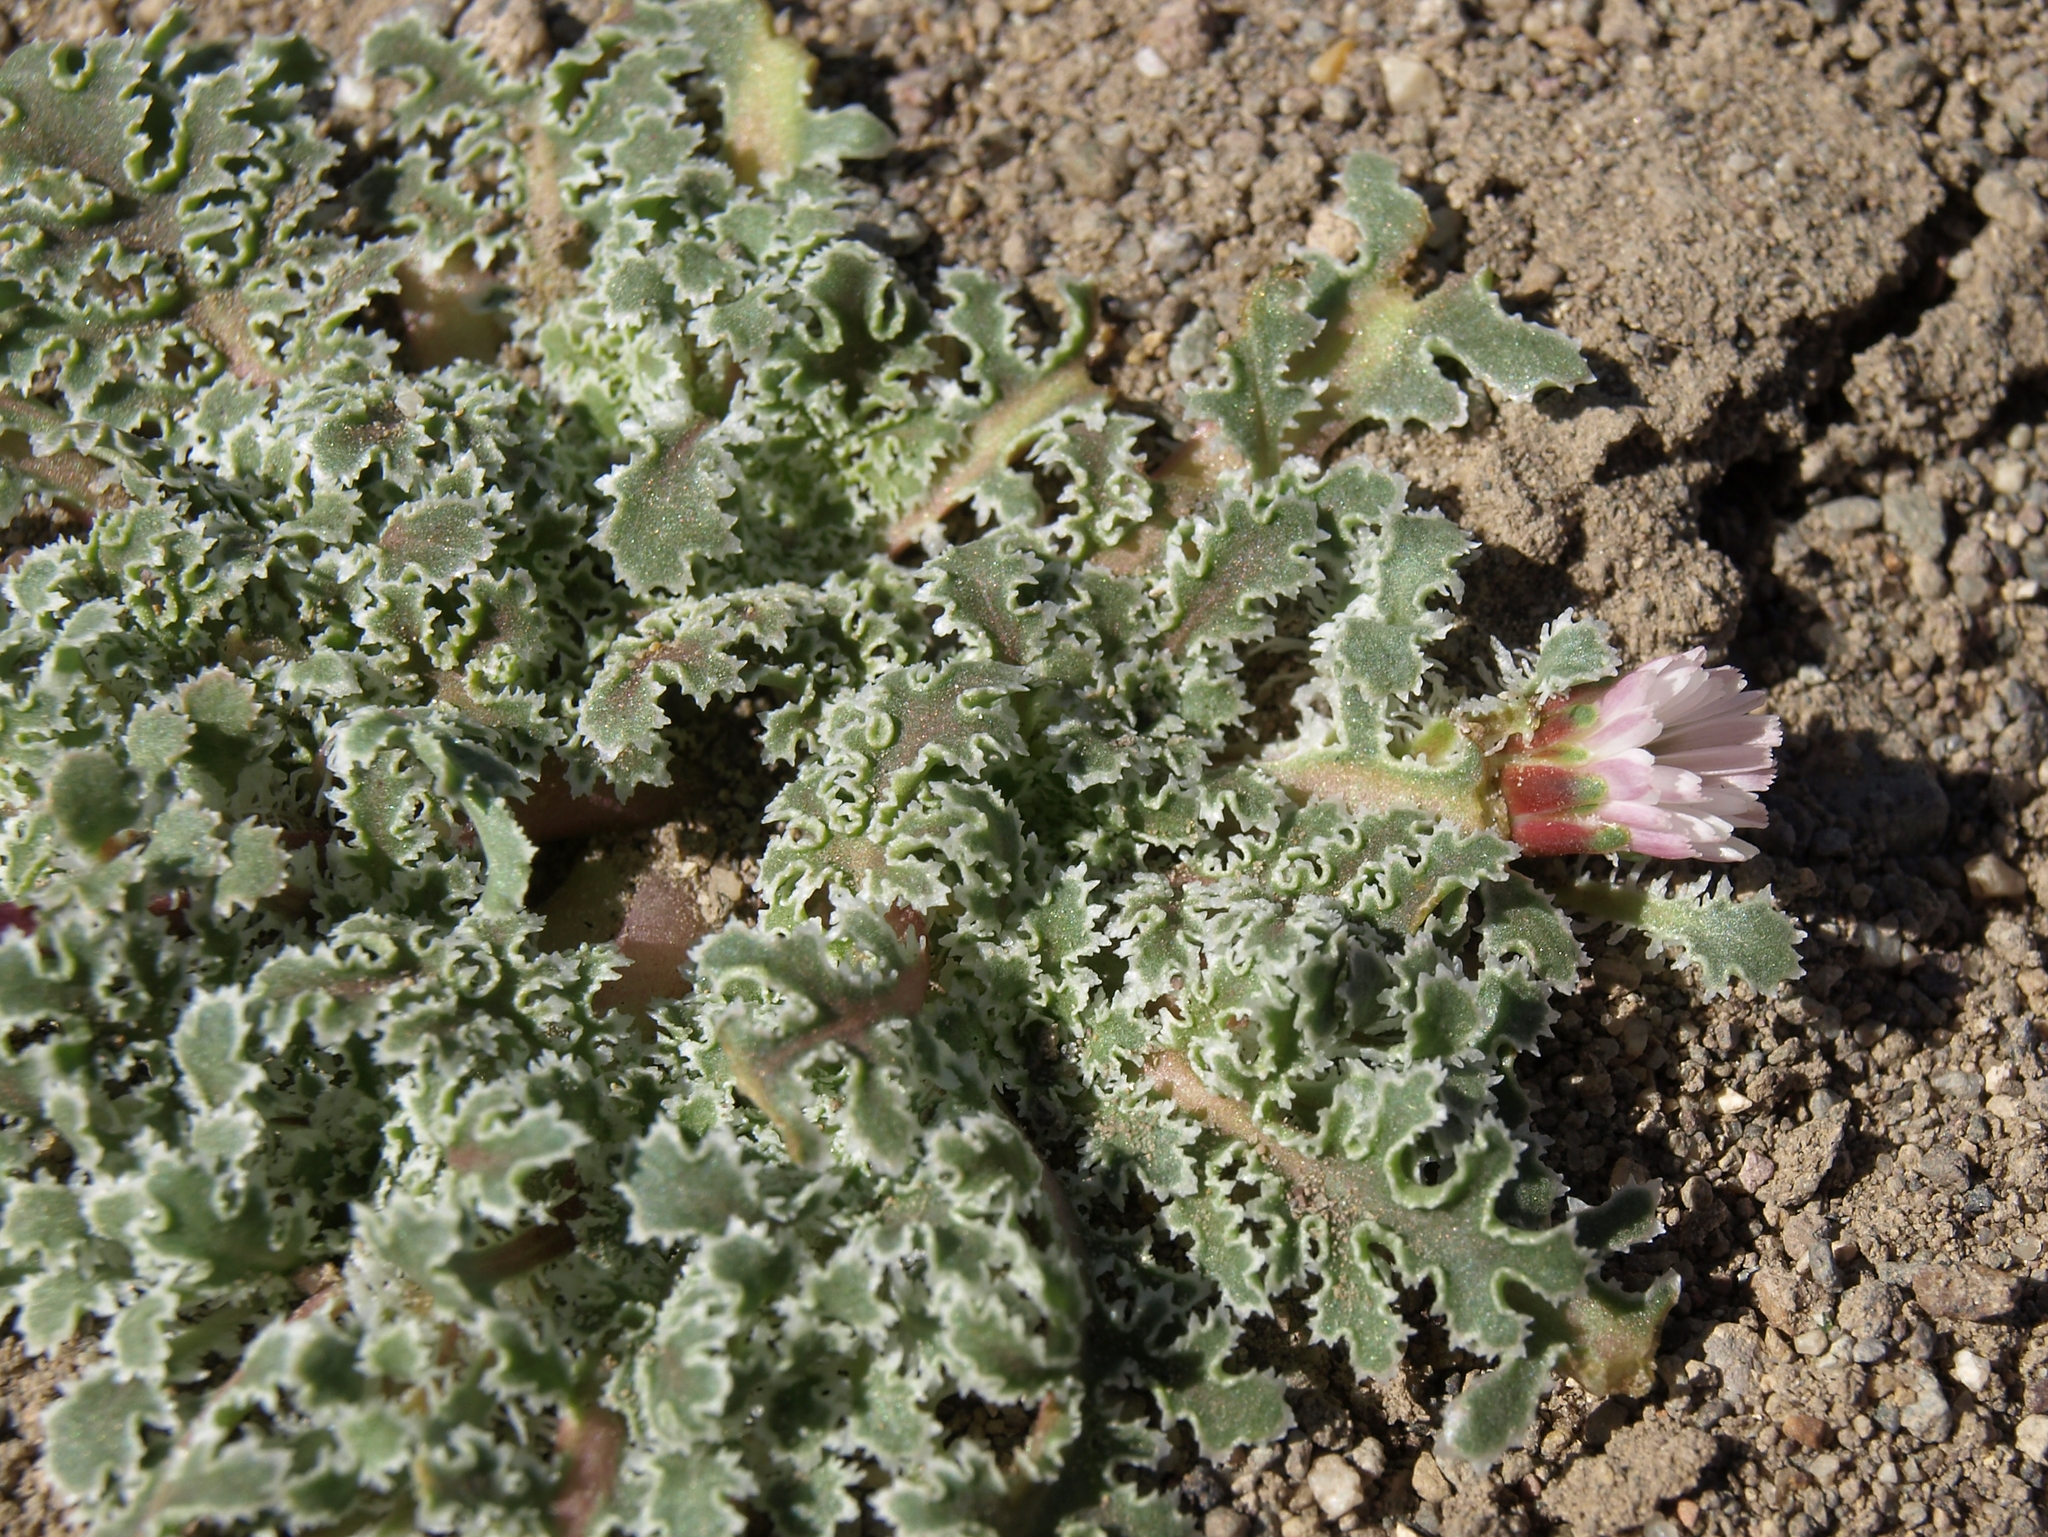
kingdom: Plantae
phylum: Tracheophyta
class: Magnoliopsida
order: Asterales
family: Asteraceae
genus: Glyptopleura
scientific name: Glyptopleura marginata
